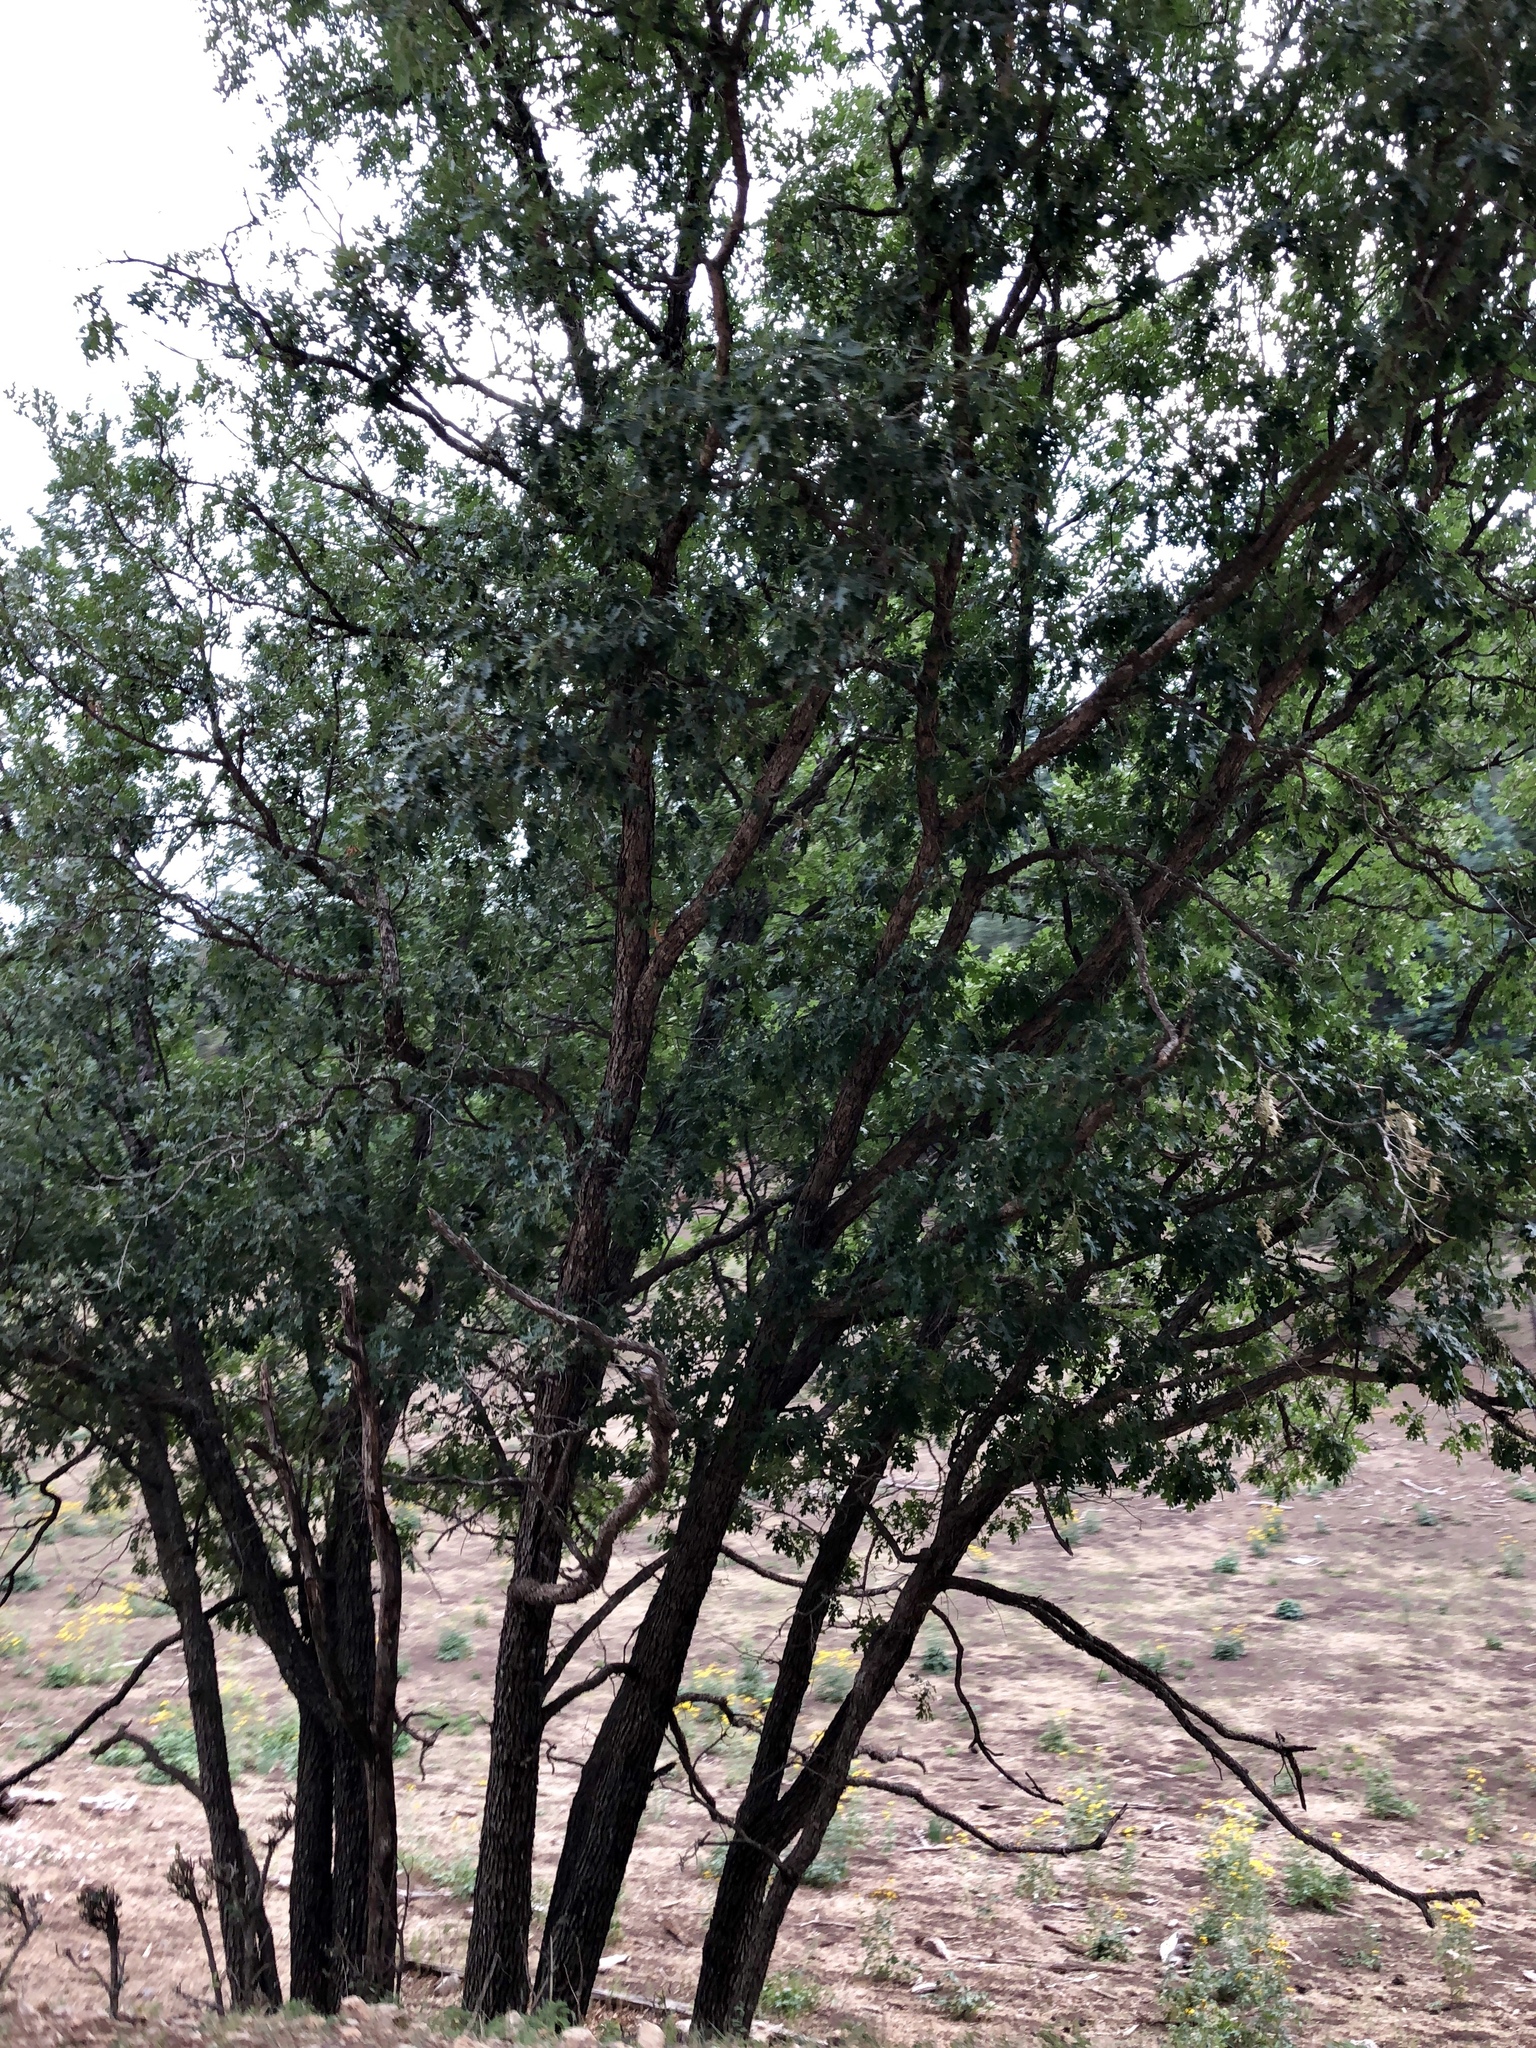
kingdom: Plantae
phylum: Tracheophyta
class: Magnoliopsida
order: Fagales
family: Fagaceae
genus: Quercus
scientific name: Quercus gambelii
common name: Gambel oak
